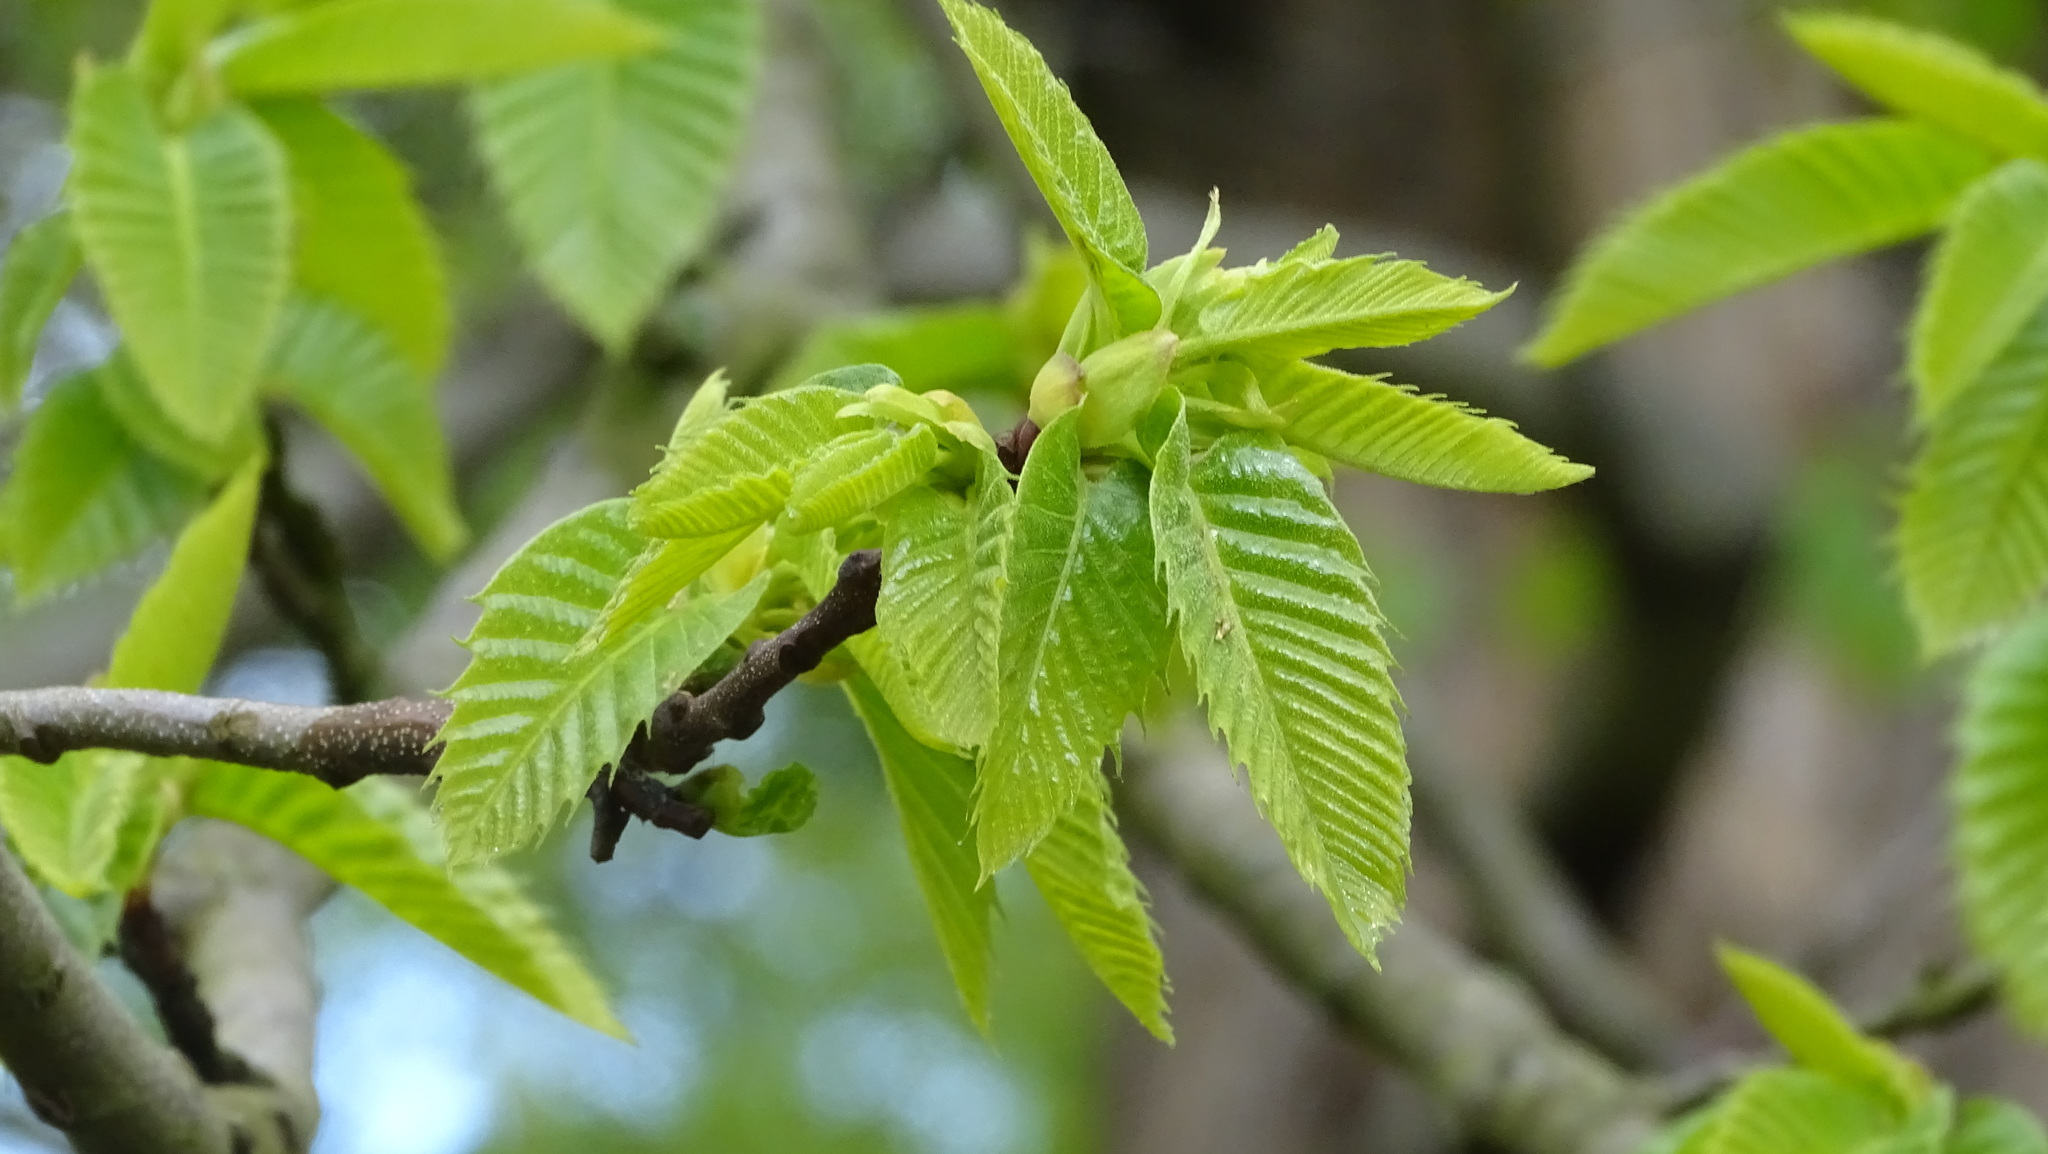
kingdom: Plantae
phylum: Tracheophyta
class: Magnoliopsida
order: Fagales
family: Fagaceae
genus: Castanea
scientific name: Castanea sativa
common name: Sweet chestnut
